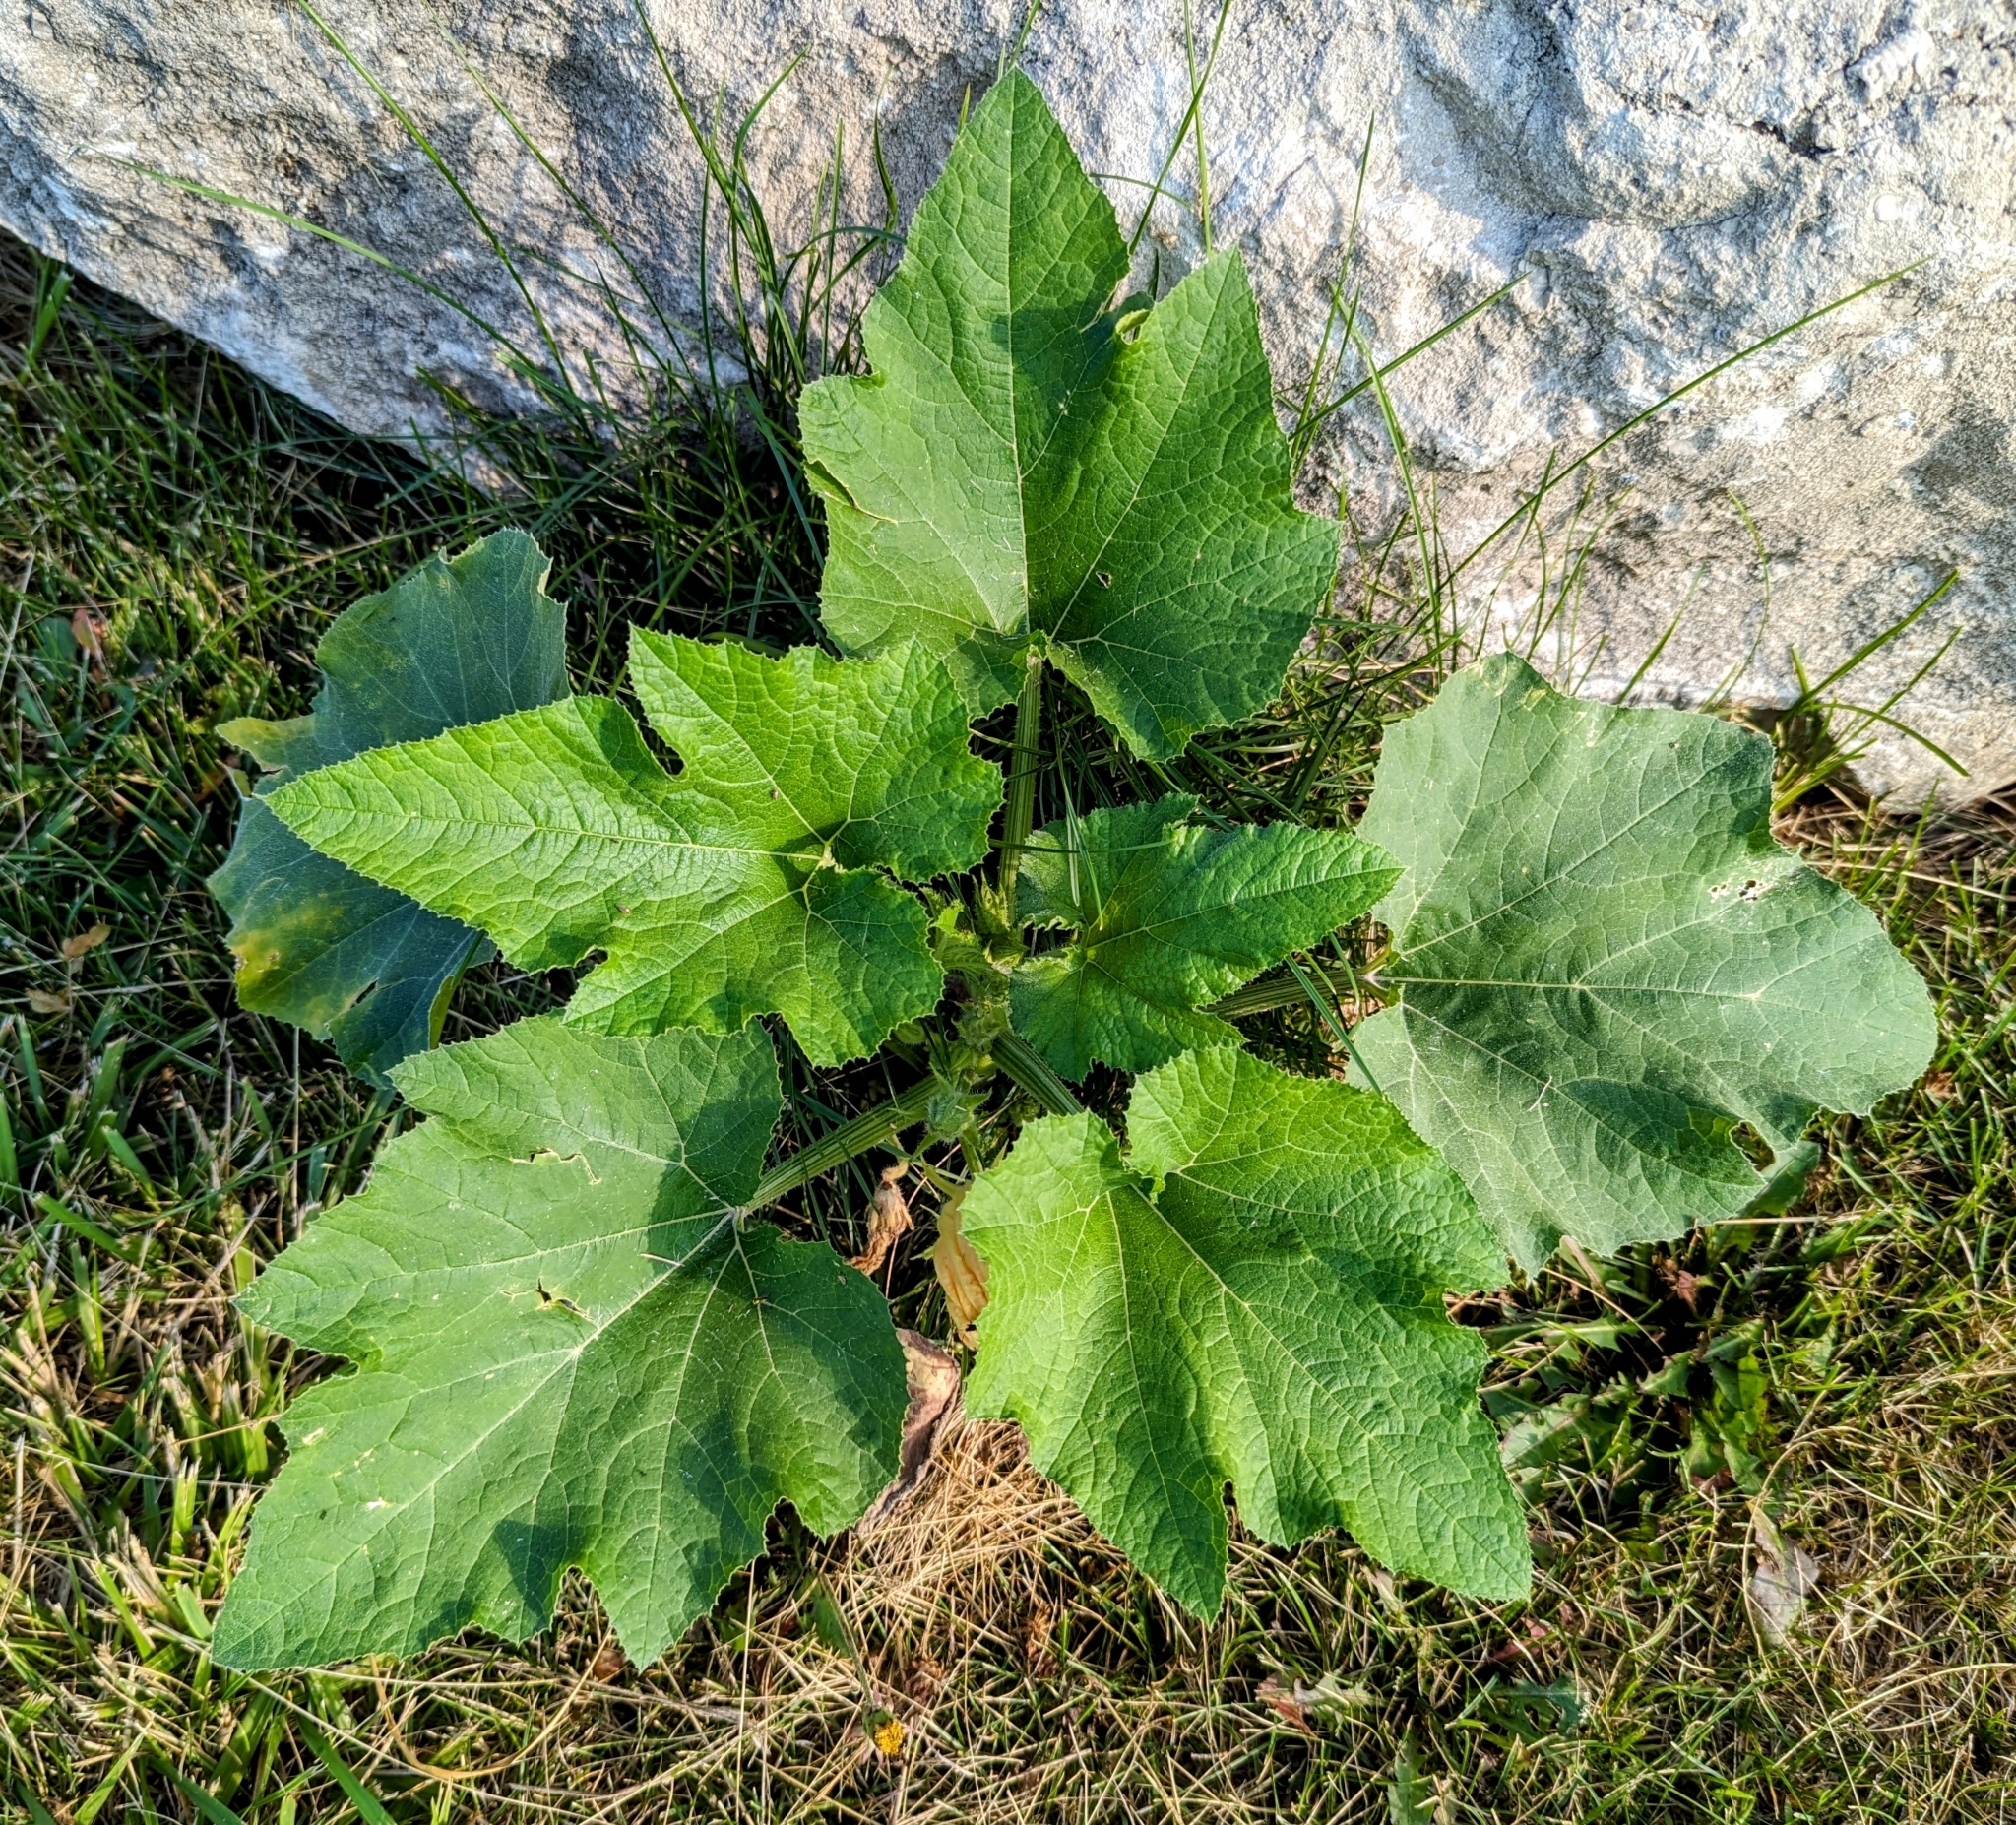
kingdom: Plantae
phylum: Tracheophyta
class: Magnoliopsida
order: Cucurbitales
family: Cucurbitaceae
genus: Cucurbita
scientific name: Cucurbita pepo
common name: Marrow
